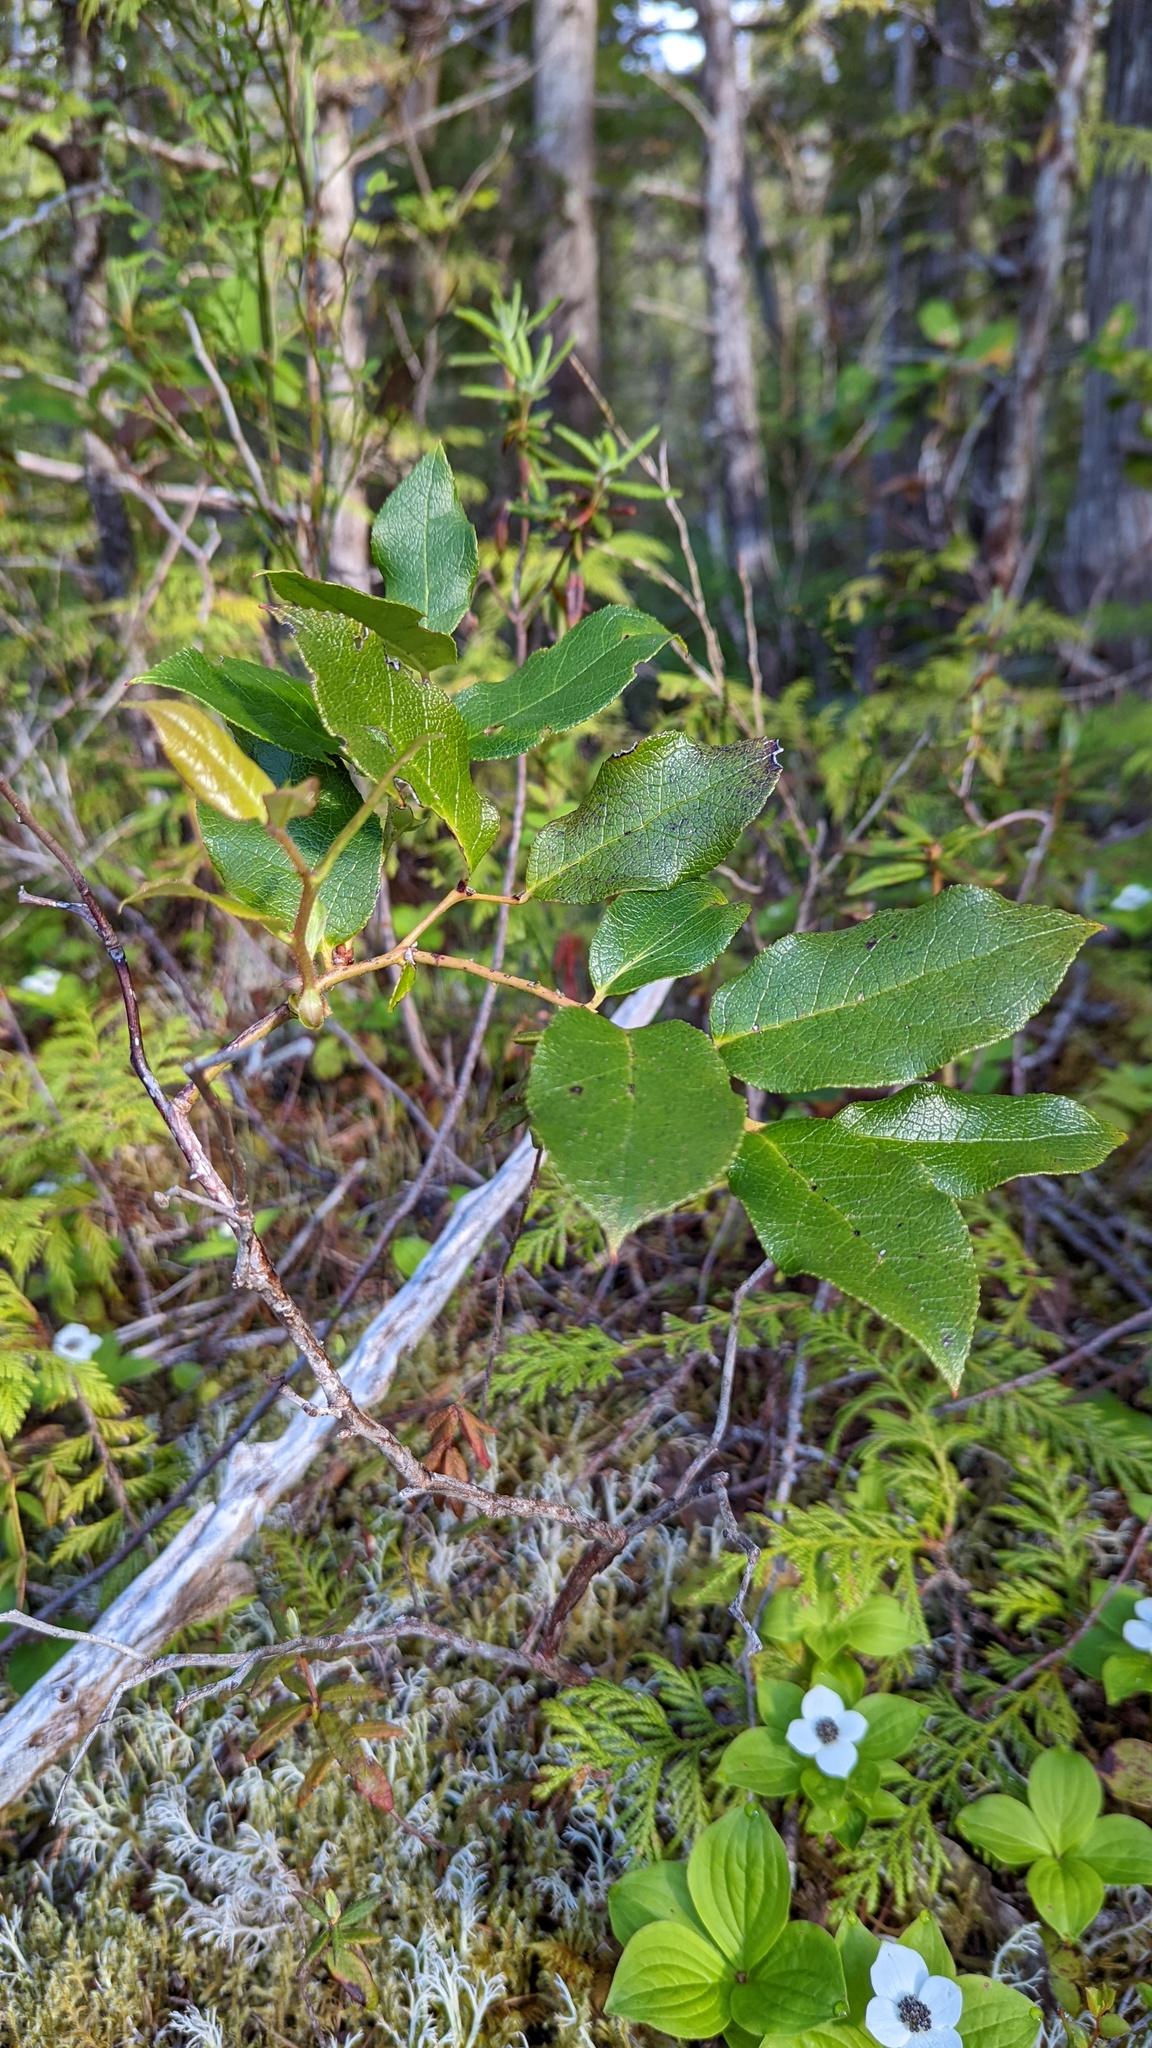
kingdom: Plantae
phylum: Tracheophyta
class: Magnoliopsida
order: Ericales
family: Ericaceae
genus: Gaultheria
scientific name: Gaultheria shallon
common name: Shallon
